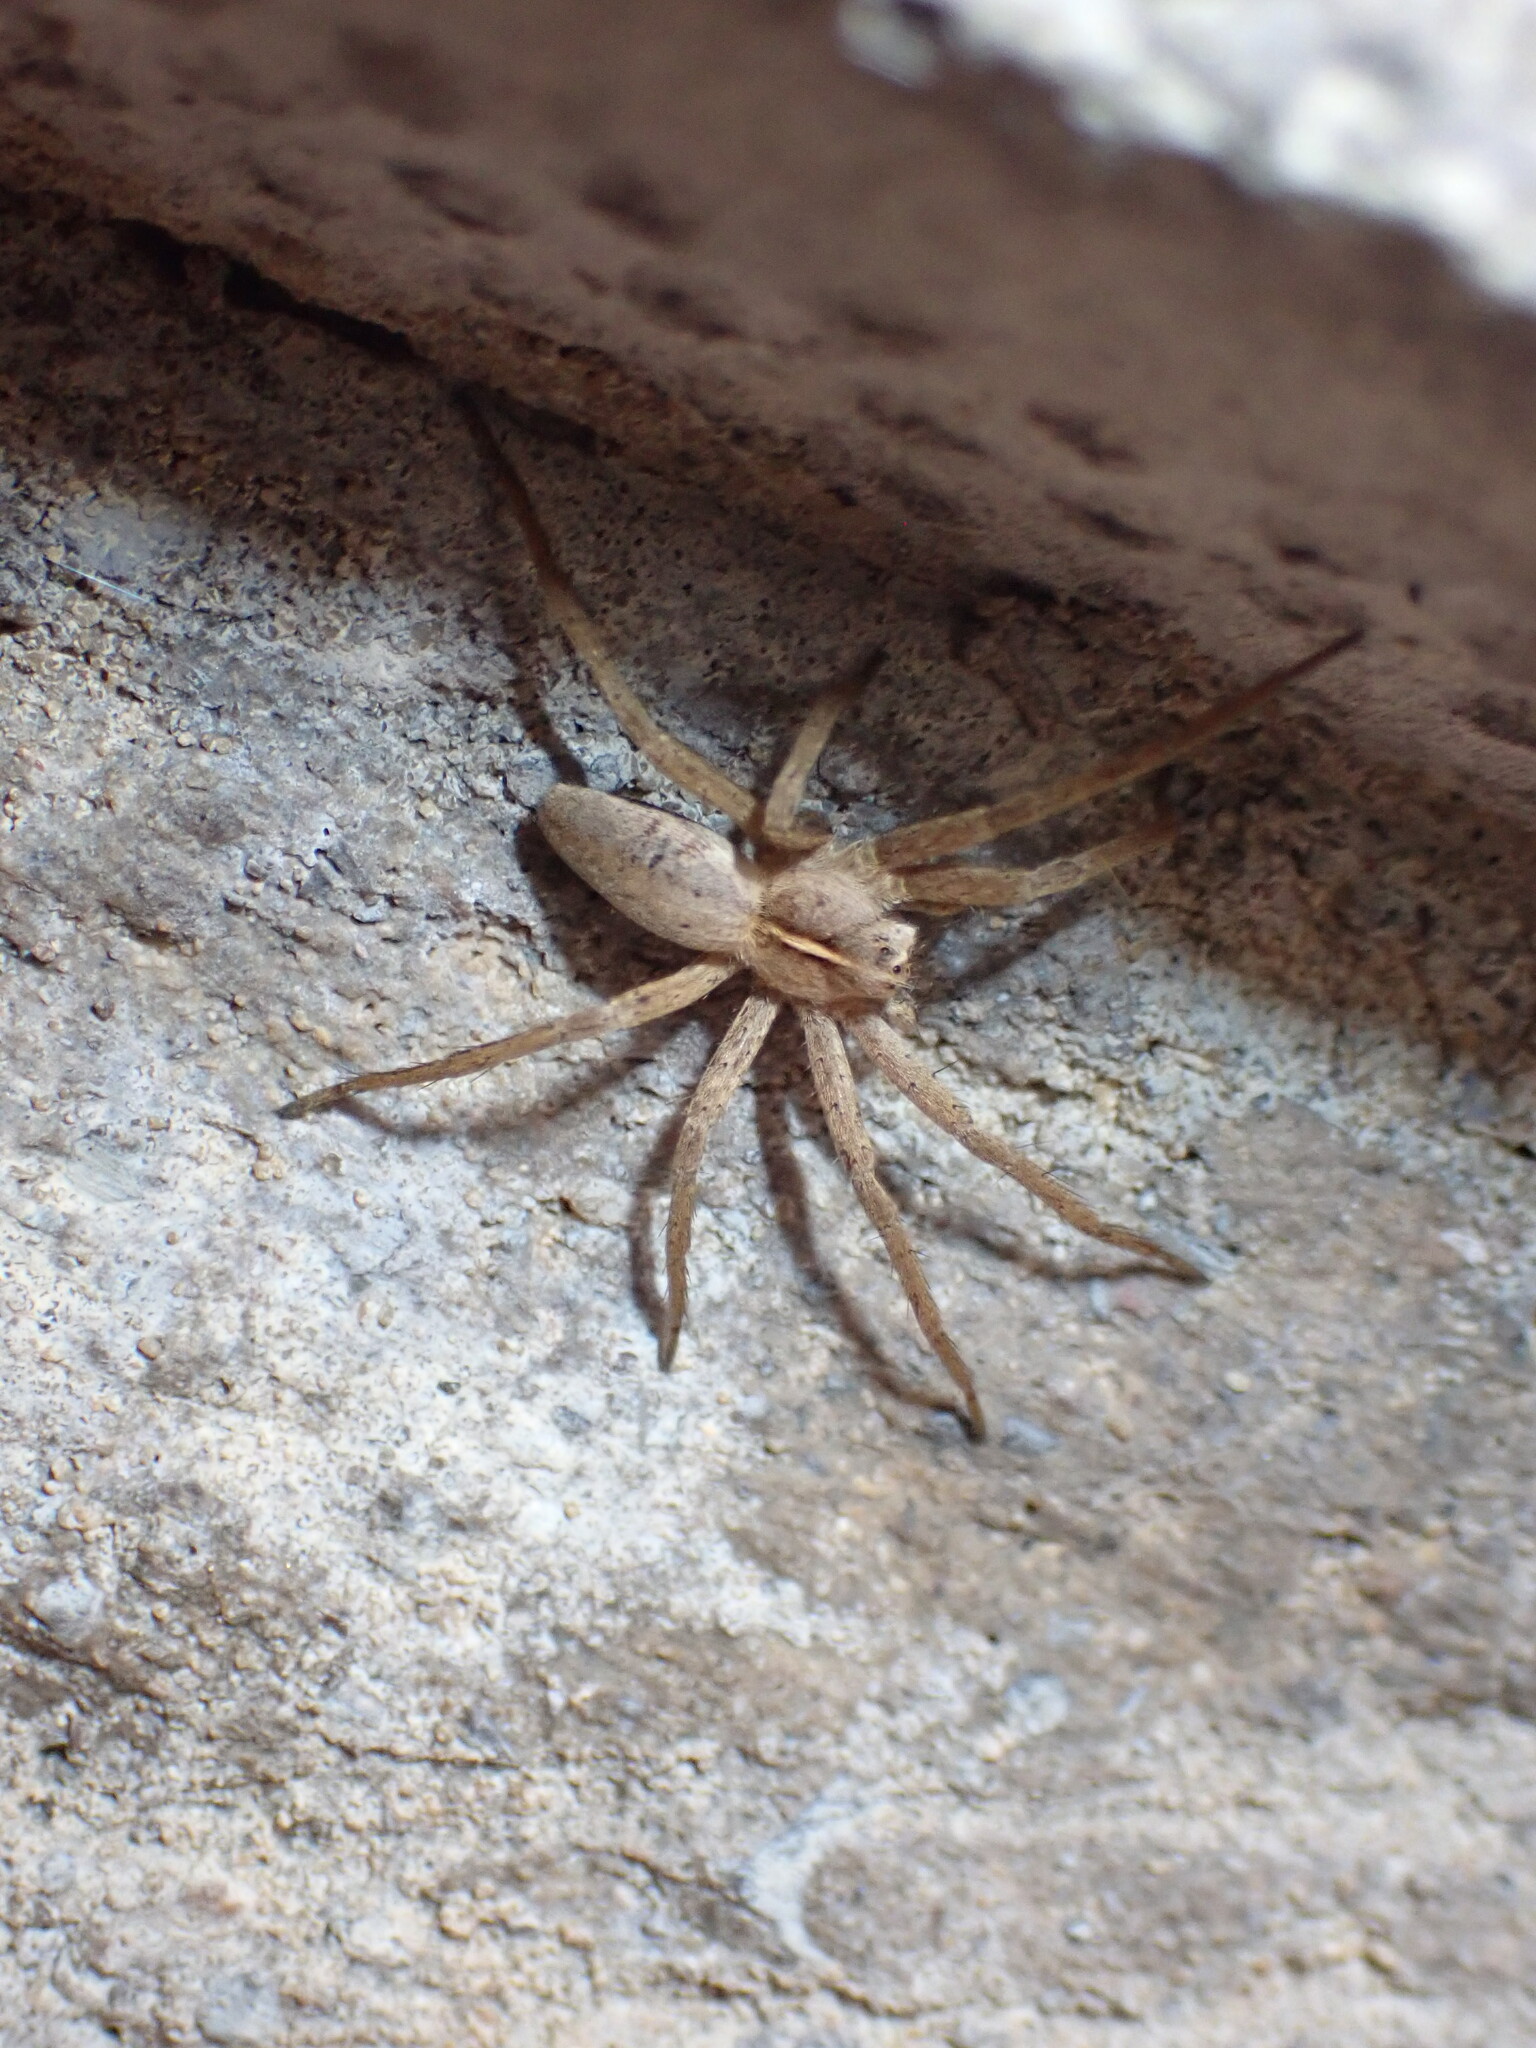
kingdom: Animalia
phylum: Arthropoda
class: Arachnida
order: Araneae
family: Pisauridae
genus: Pisaura
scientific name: Pisaura mirabilis
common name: Tent spider
